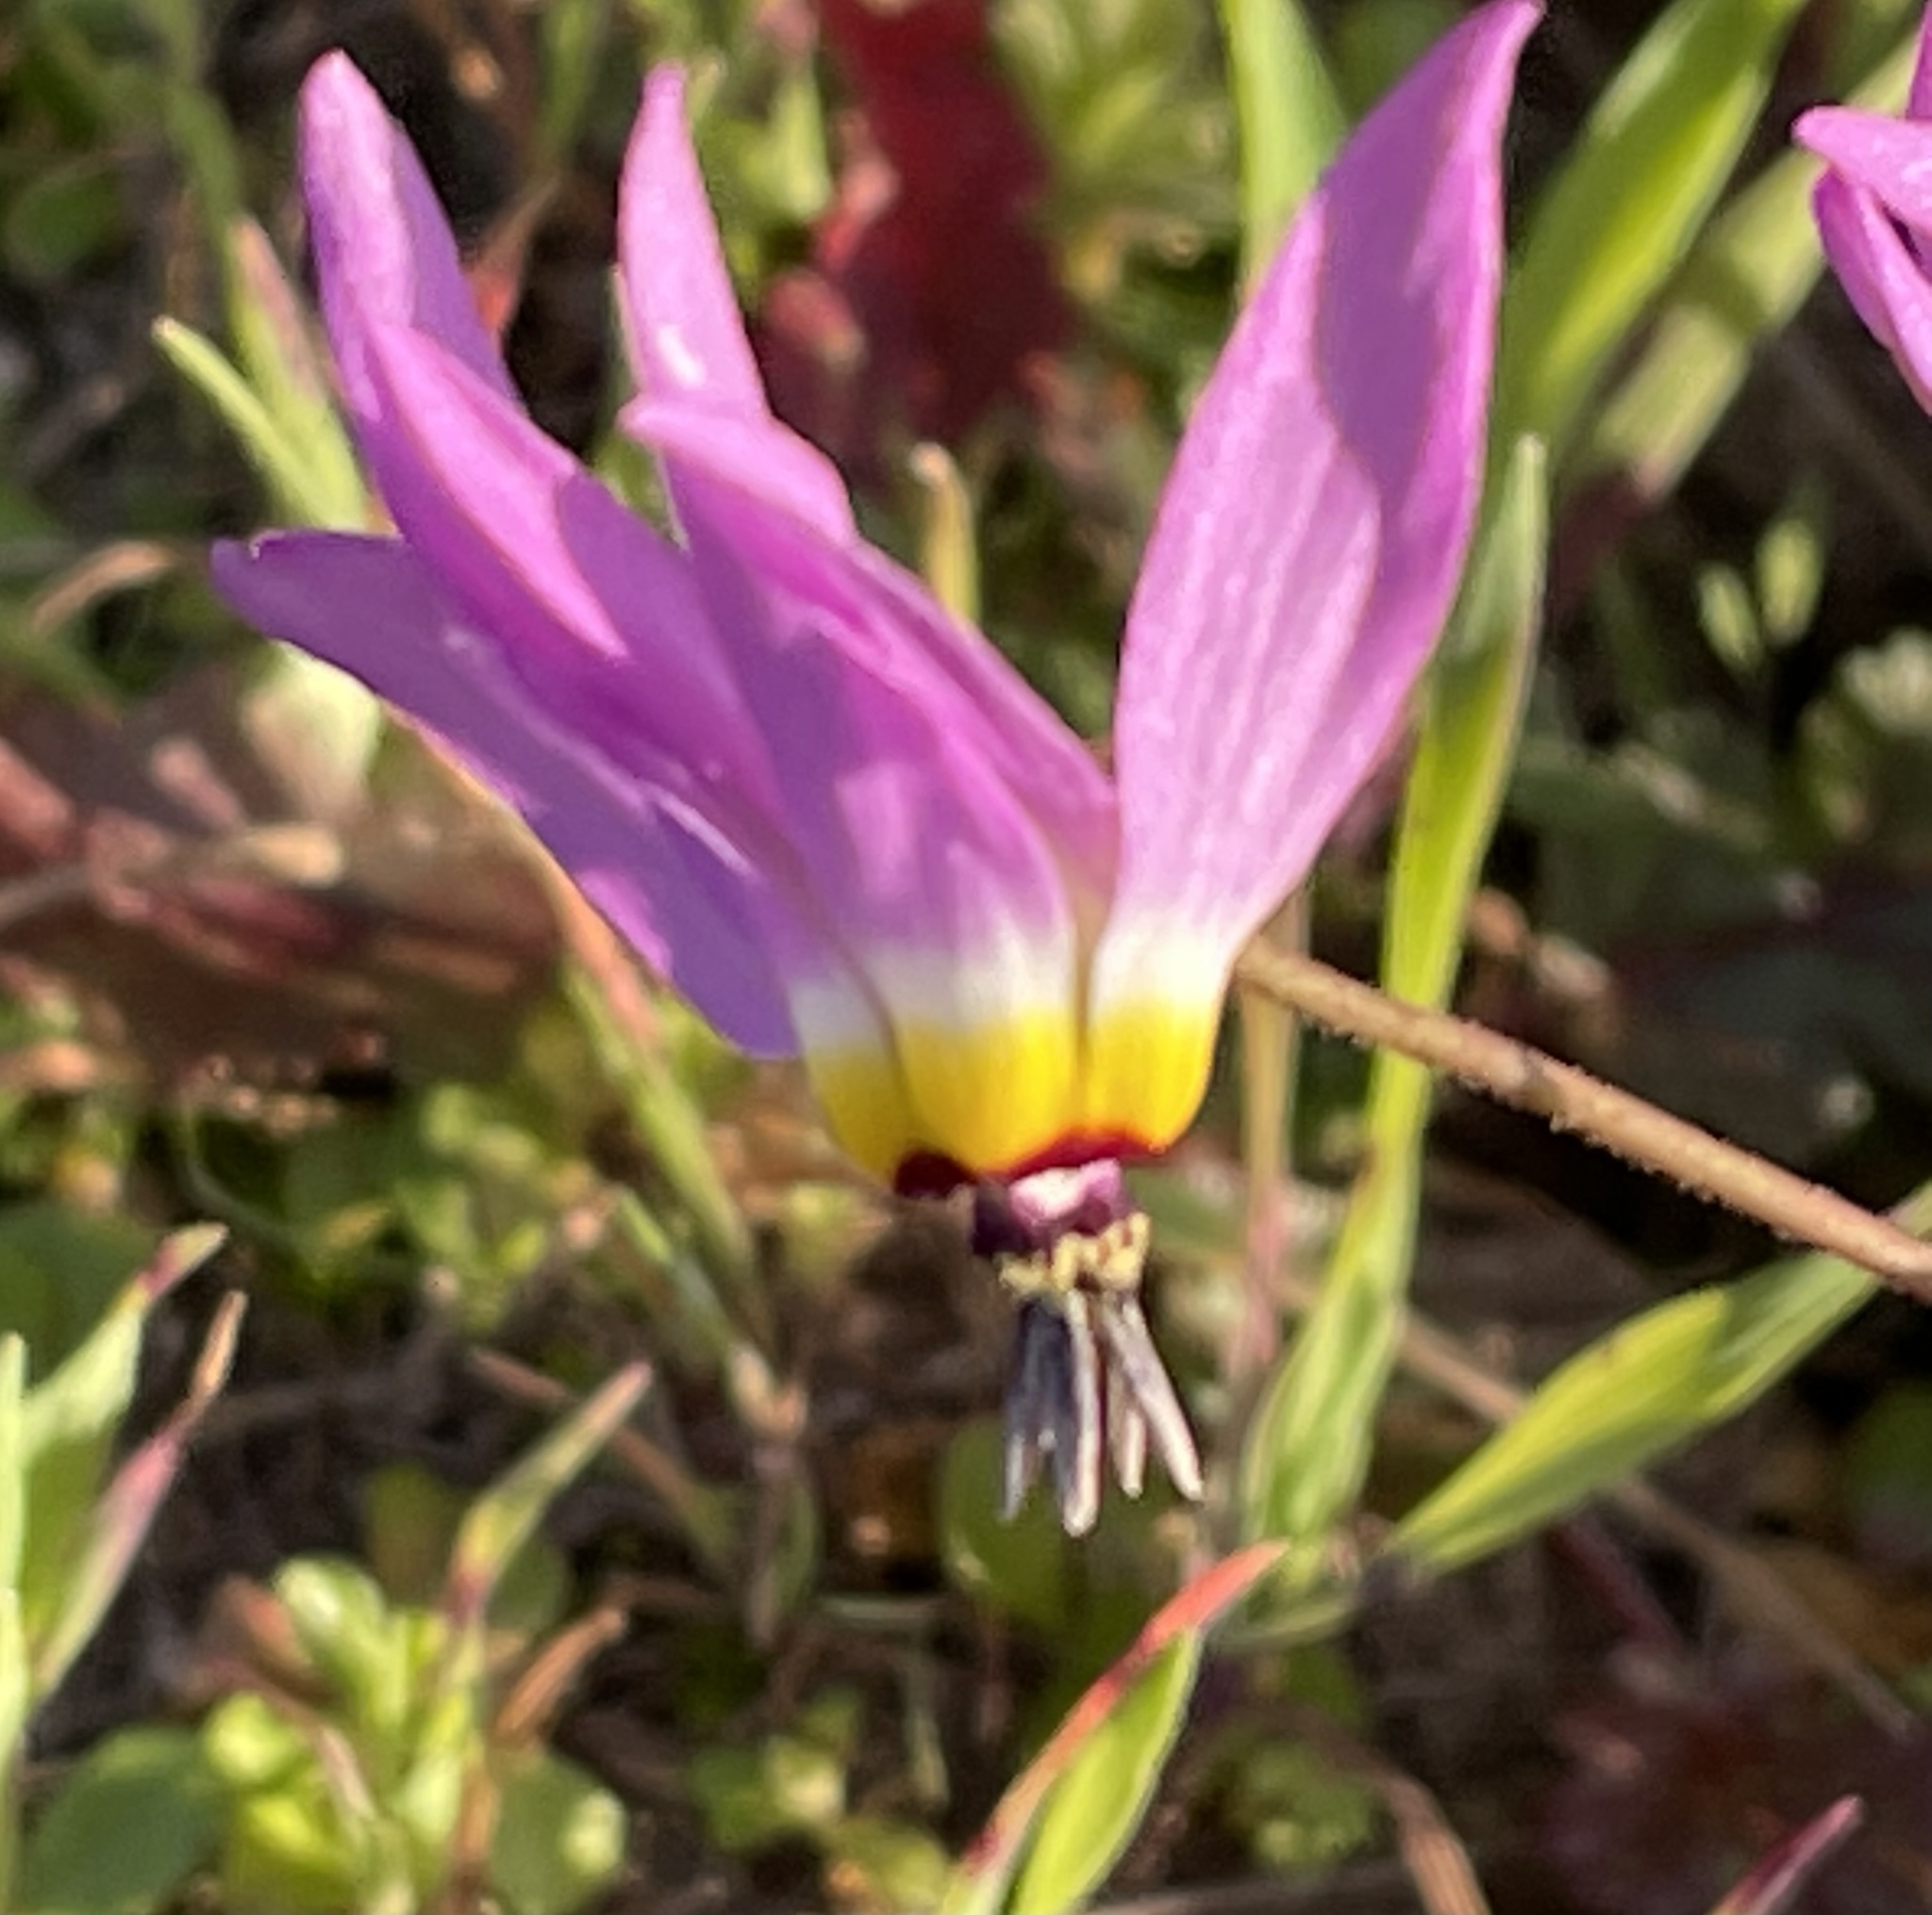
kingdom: Plantae
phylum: Tracheophyta
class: Magnoliopsida
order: Ericales
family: Primulaceae
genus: Dodecatheon
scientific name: Dodecatheon clevelandii
